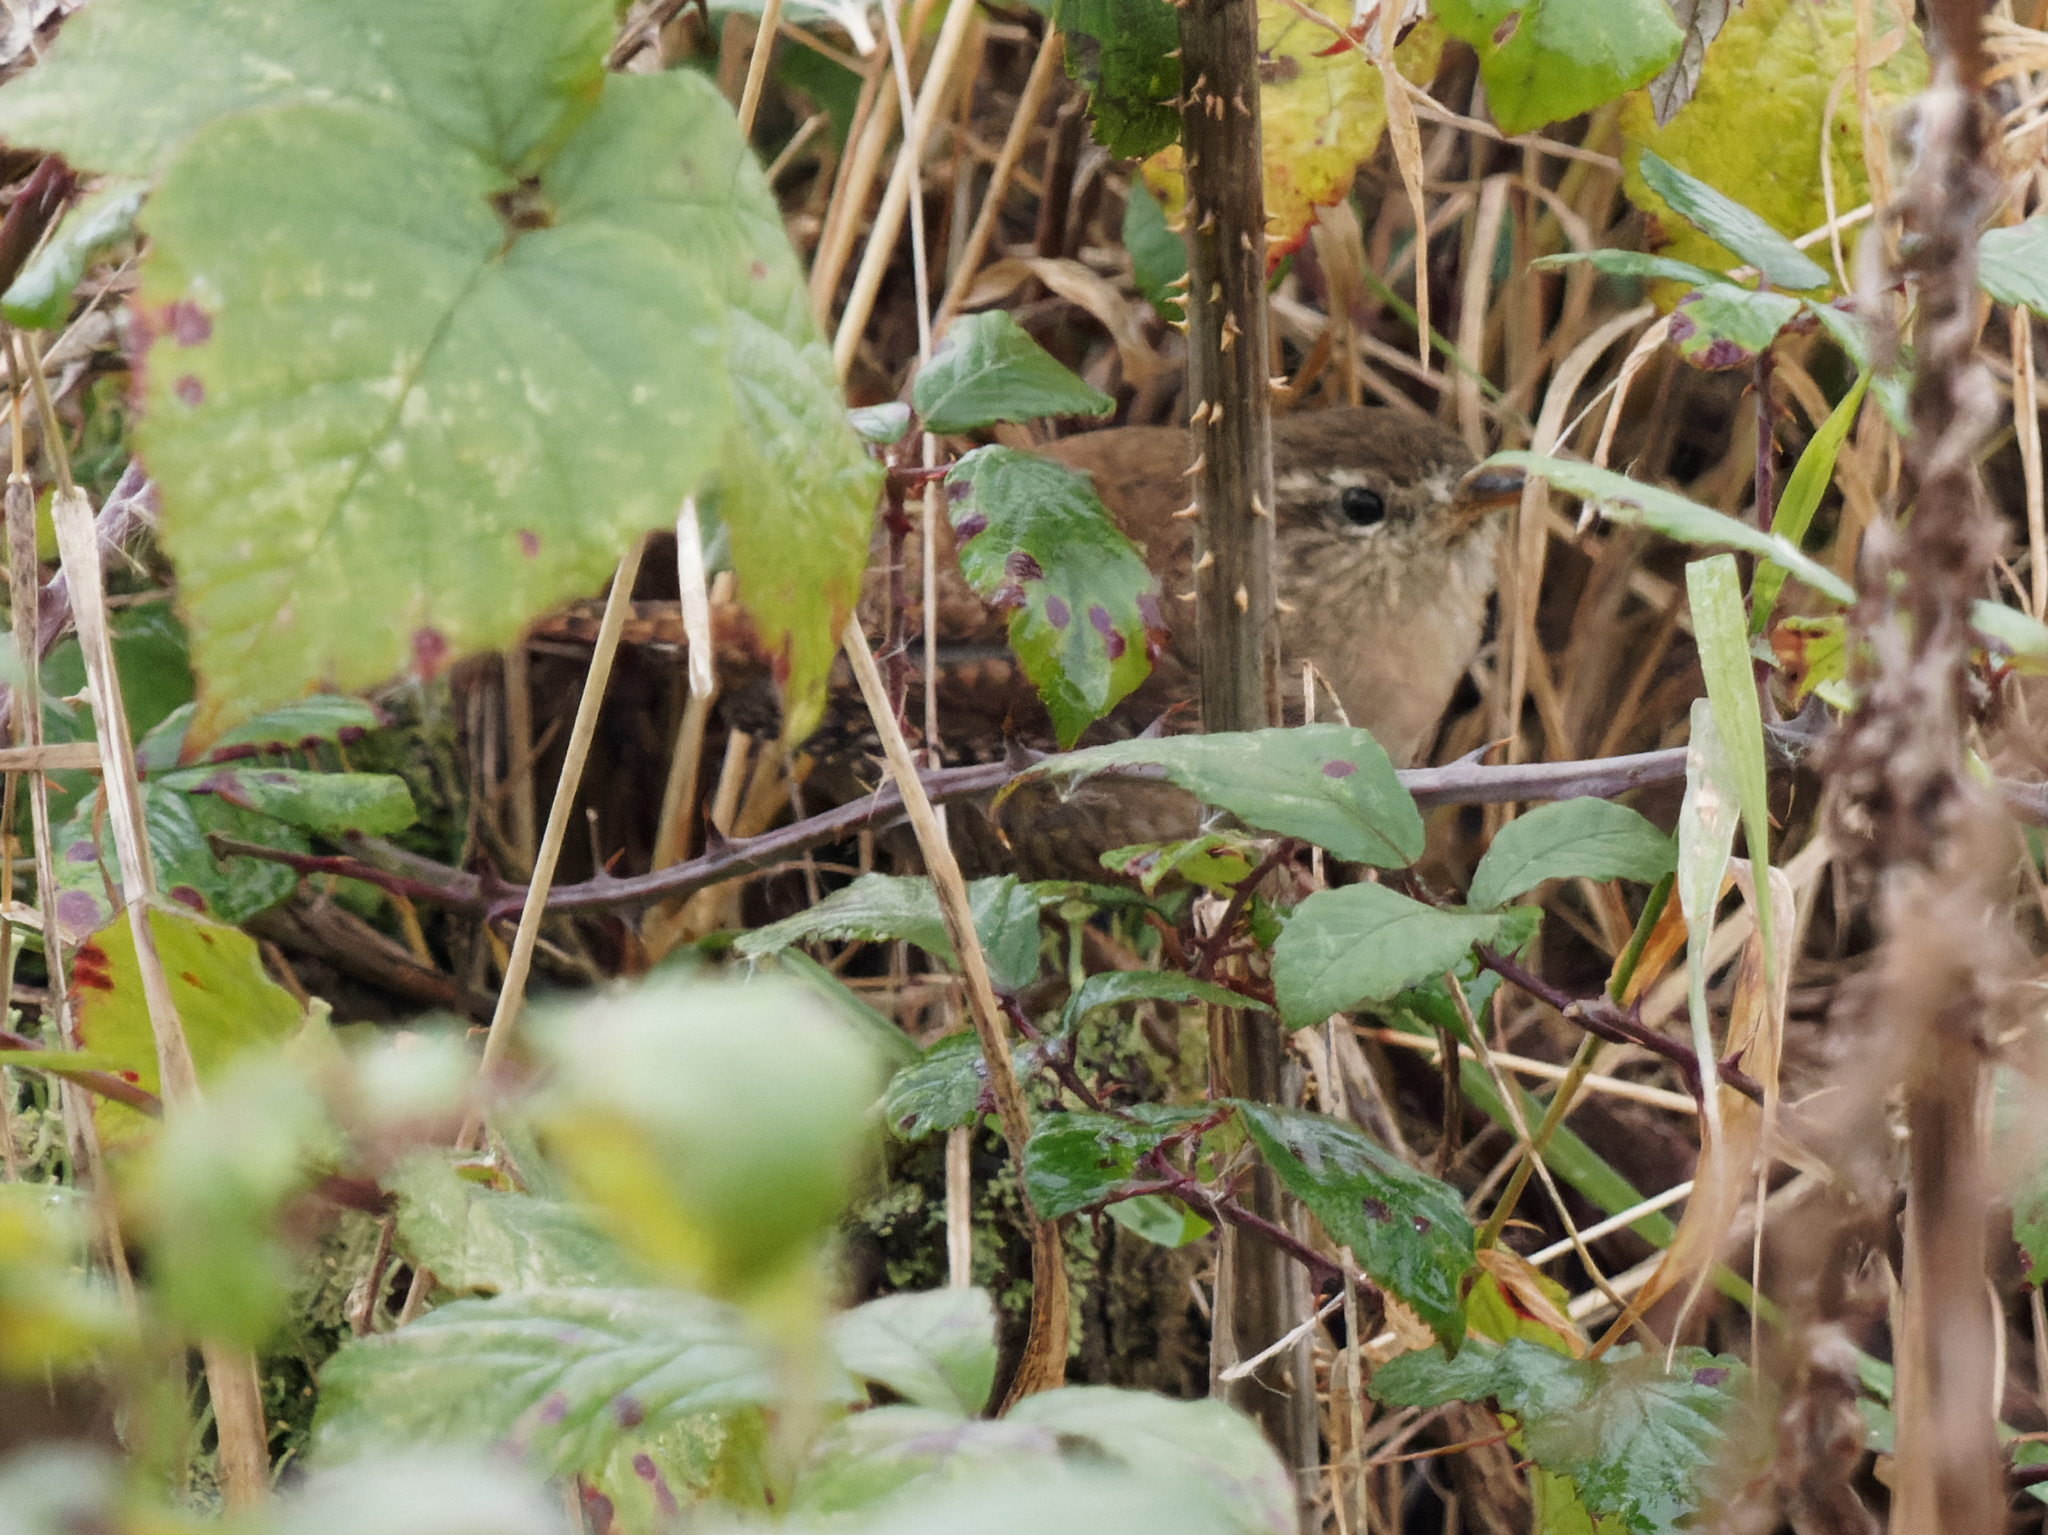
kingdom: Animalia
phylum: Chordata
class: Aves
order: Passeriformes
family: Troglodytidae
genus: Troglodytes
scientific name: Troglodytes troglodytes
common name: Eurasian wren
